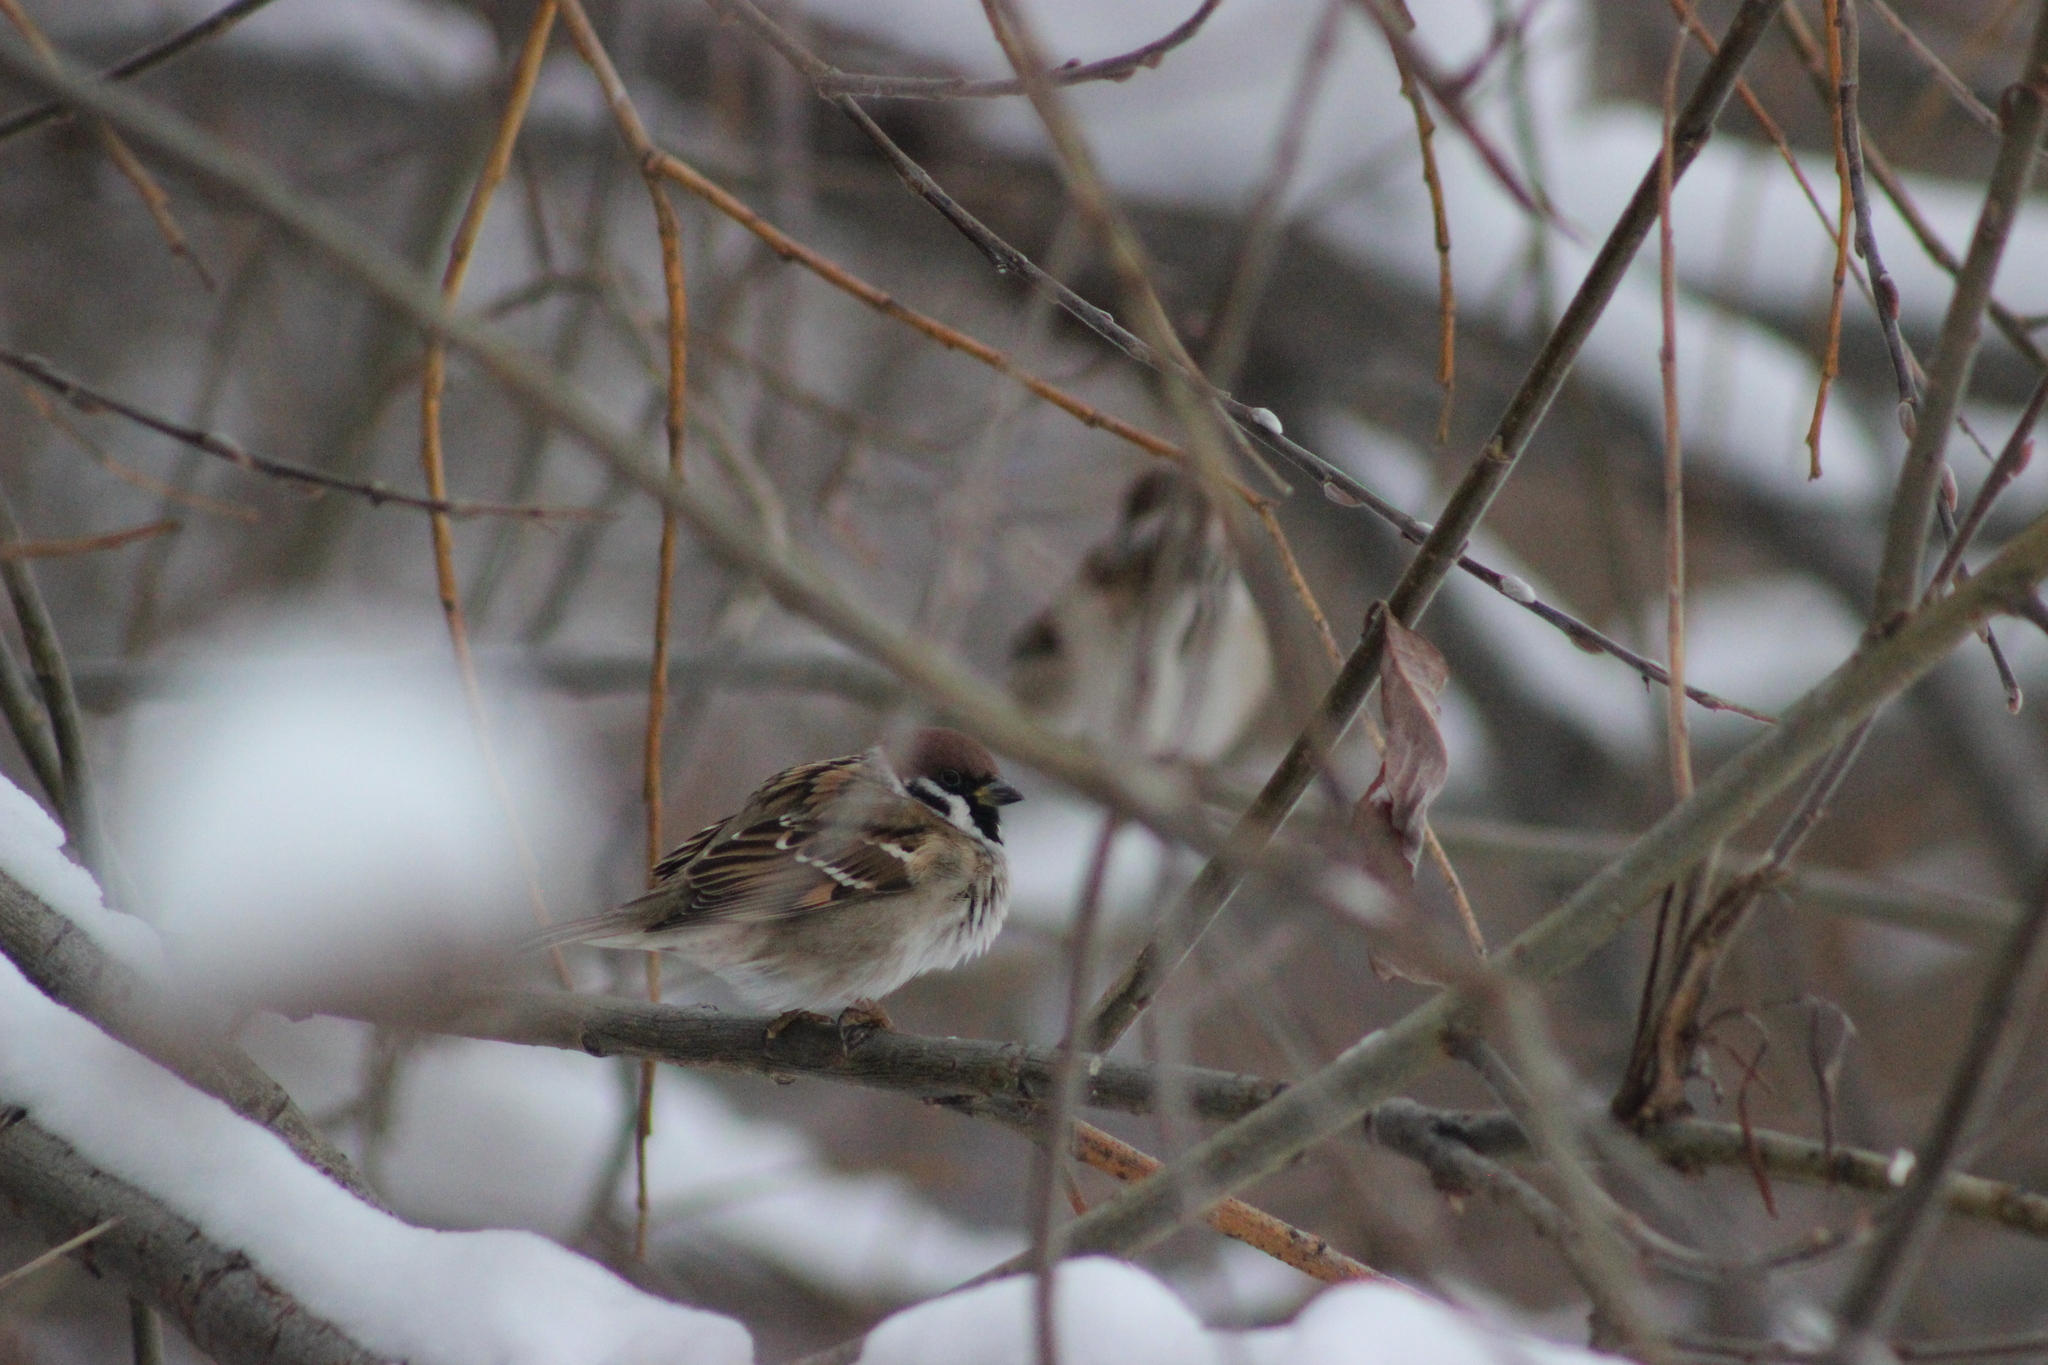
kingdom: Animalia
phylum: Chordata
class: Aves
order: Passeriformes
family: Passeridae
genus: Passer
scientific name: Passer montanus
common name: Eurasian tree sparrow
